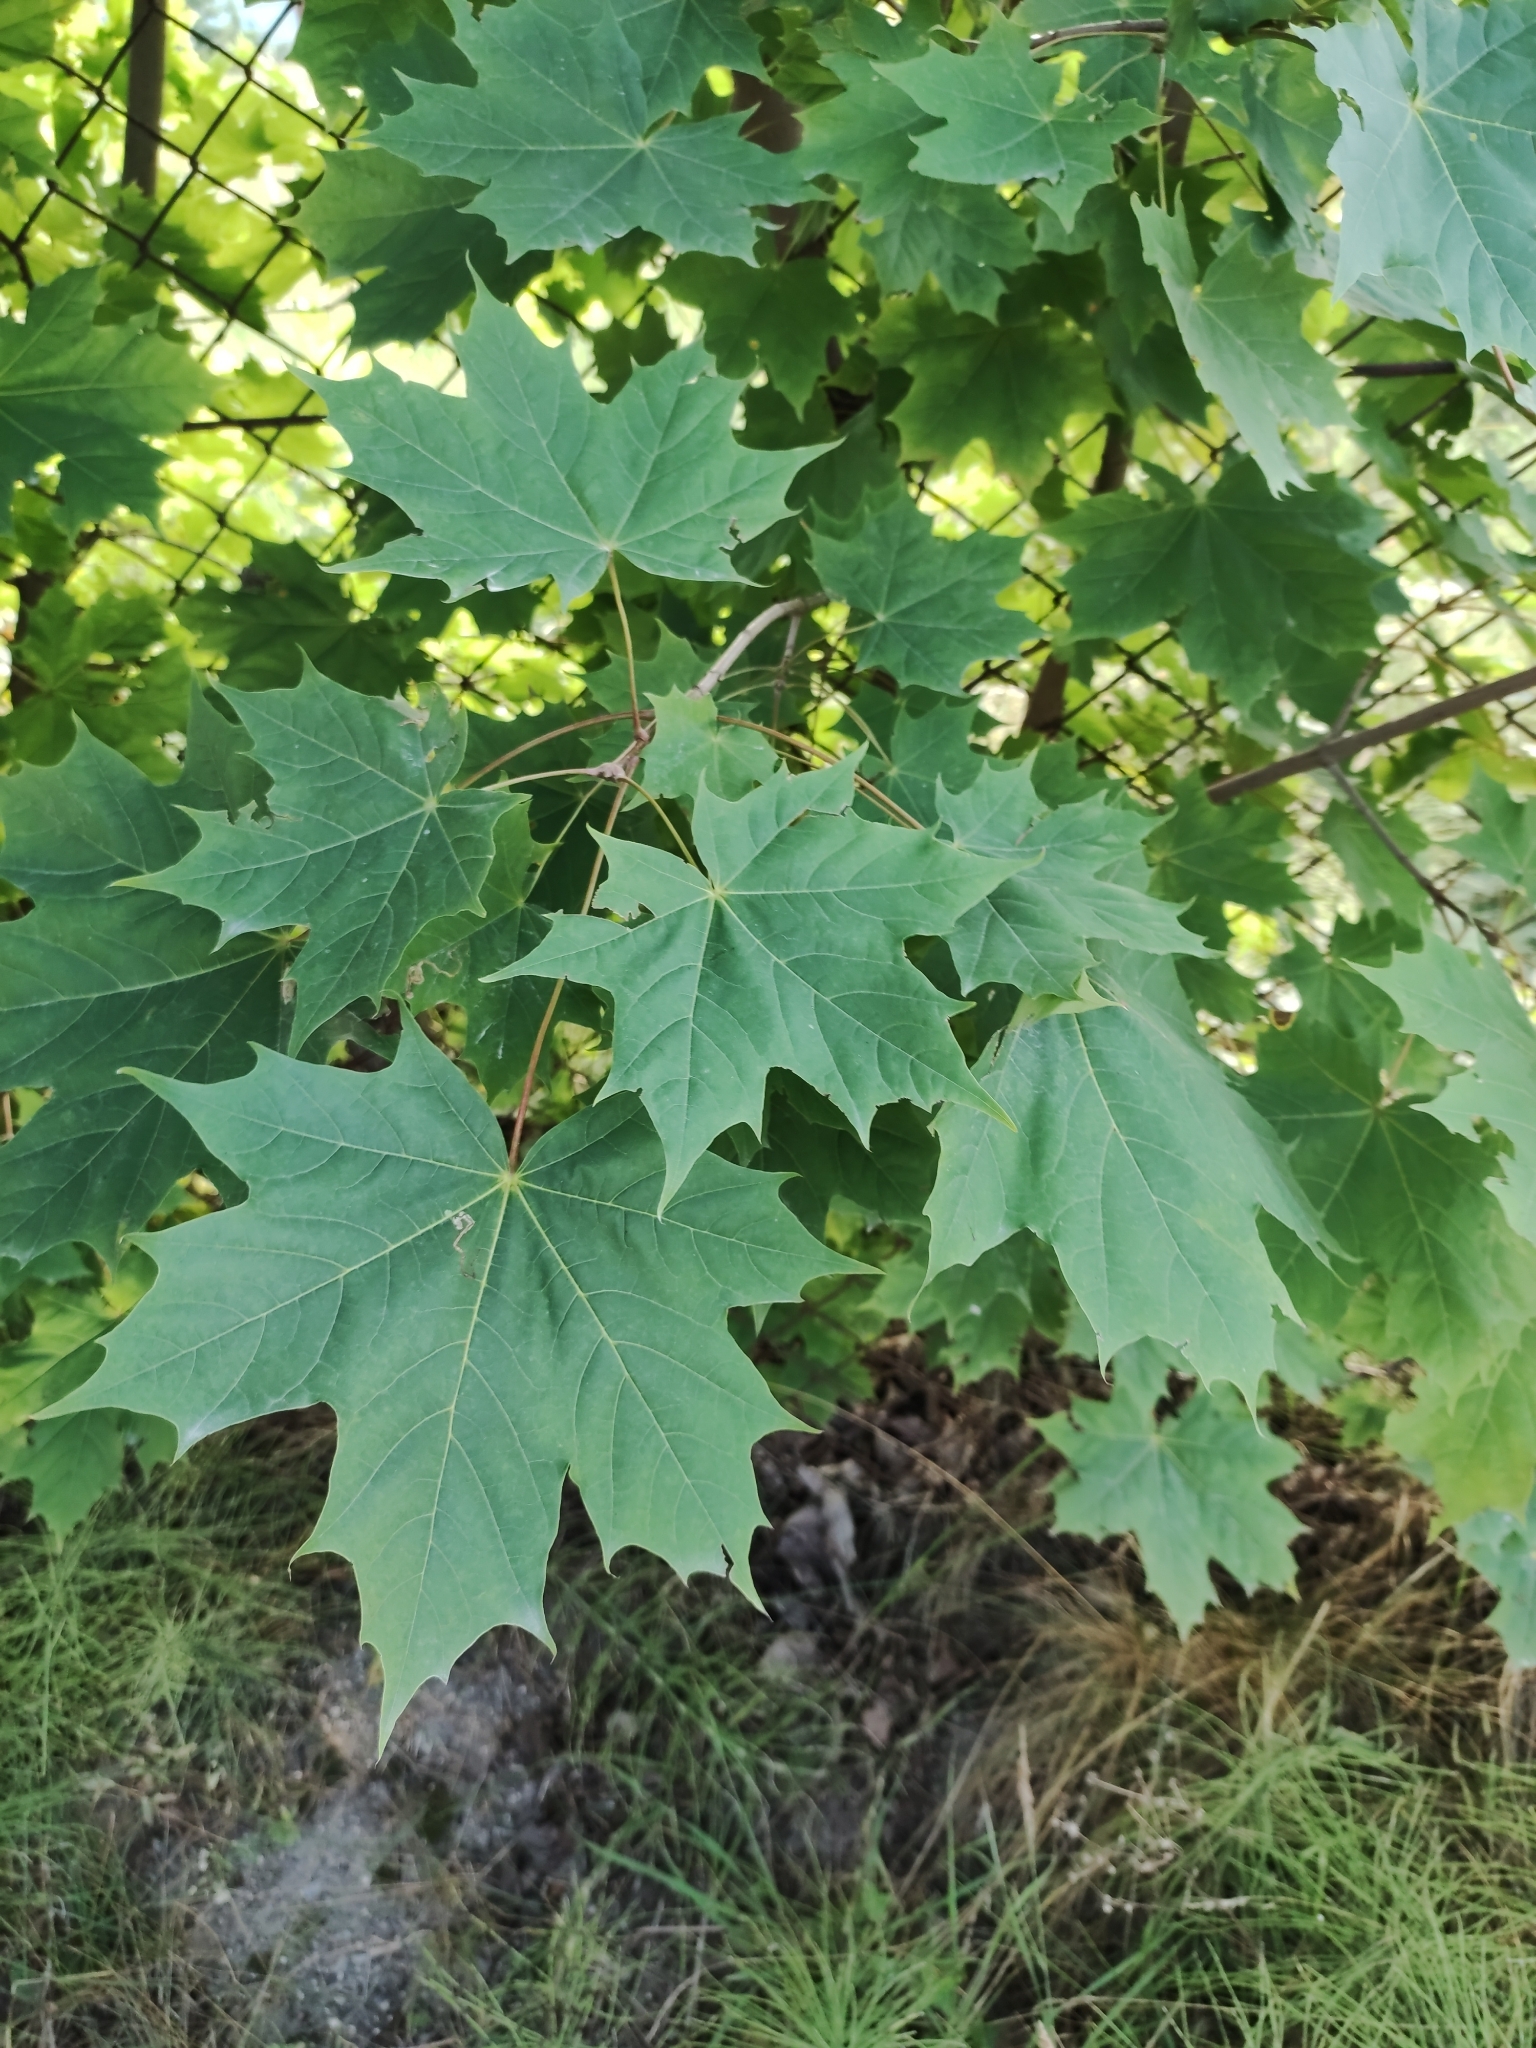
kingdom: Plantae
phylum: Tracheophyta
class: Magnoliopsida
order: Sapindales
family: Sapindaceae
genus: Acer
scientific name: Acer platanoides
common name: Norway maple
